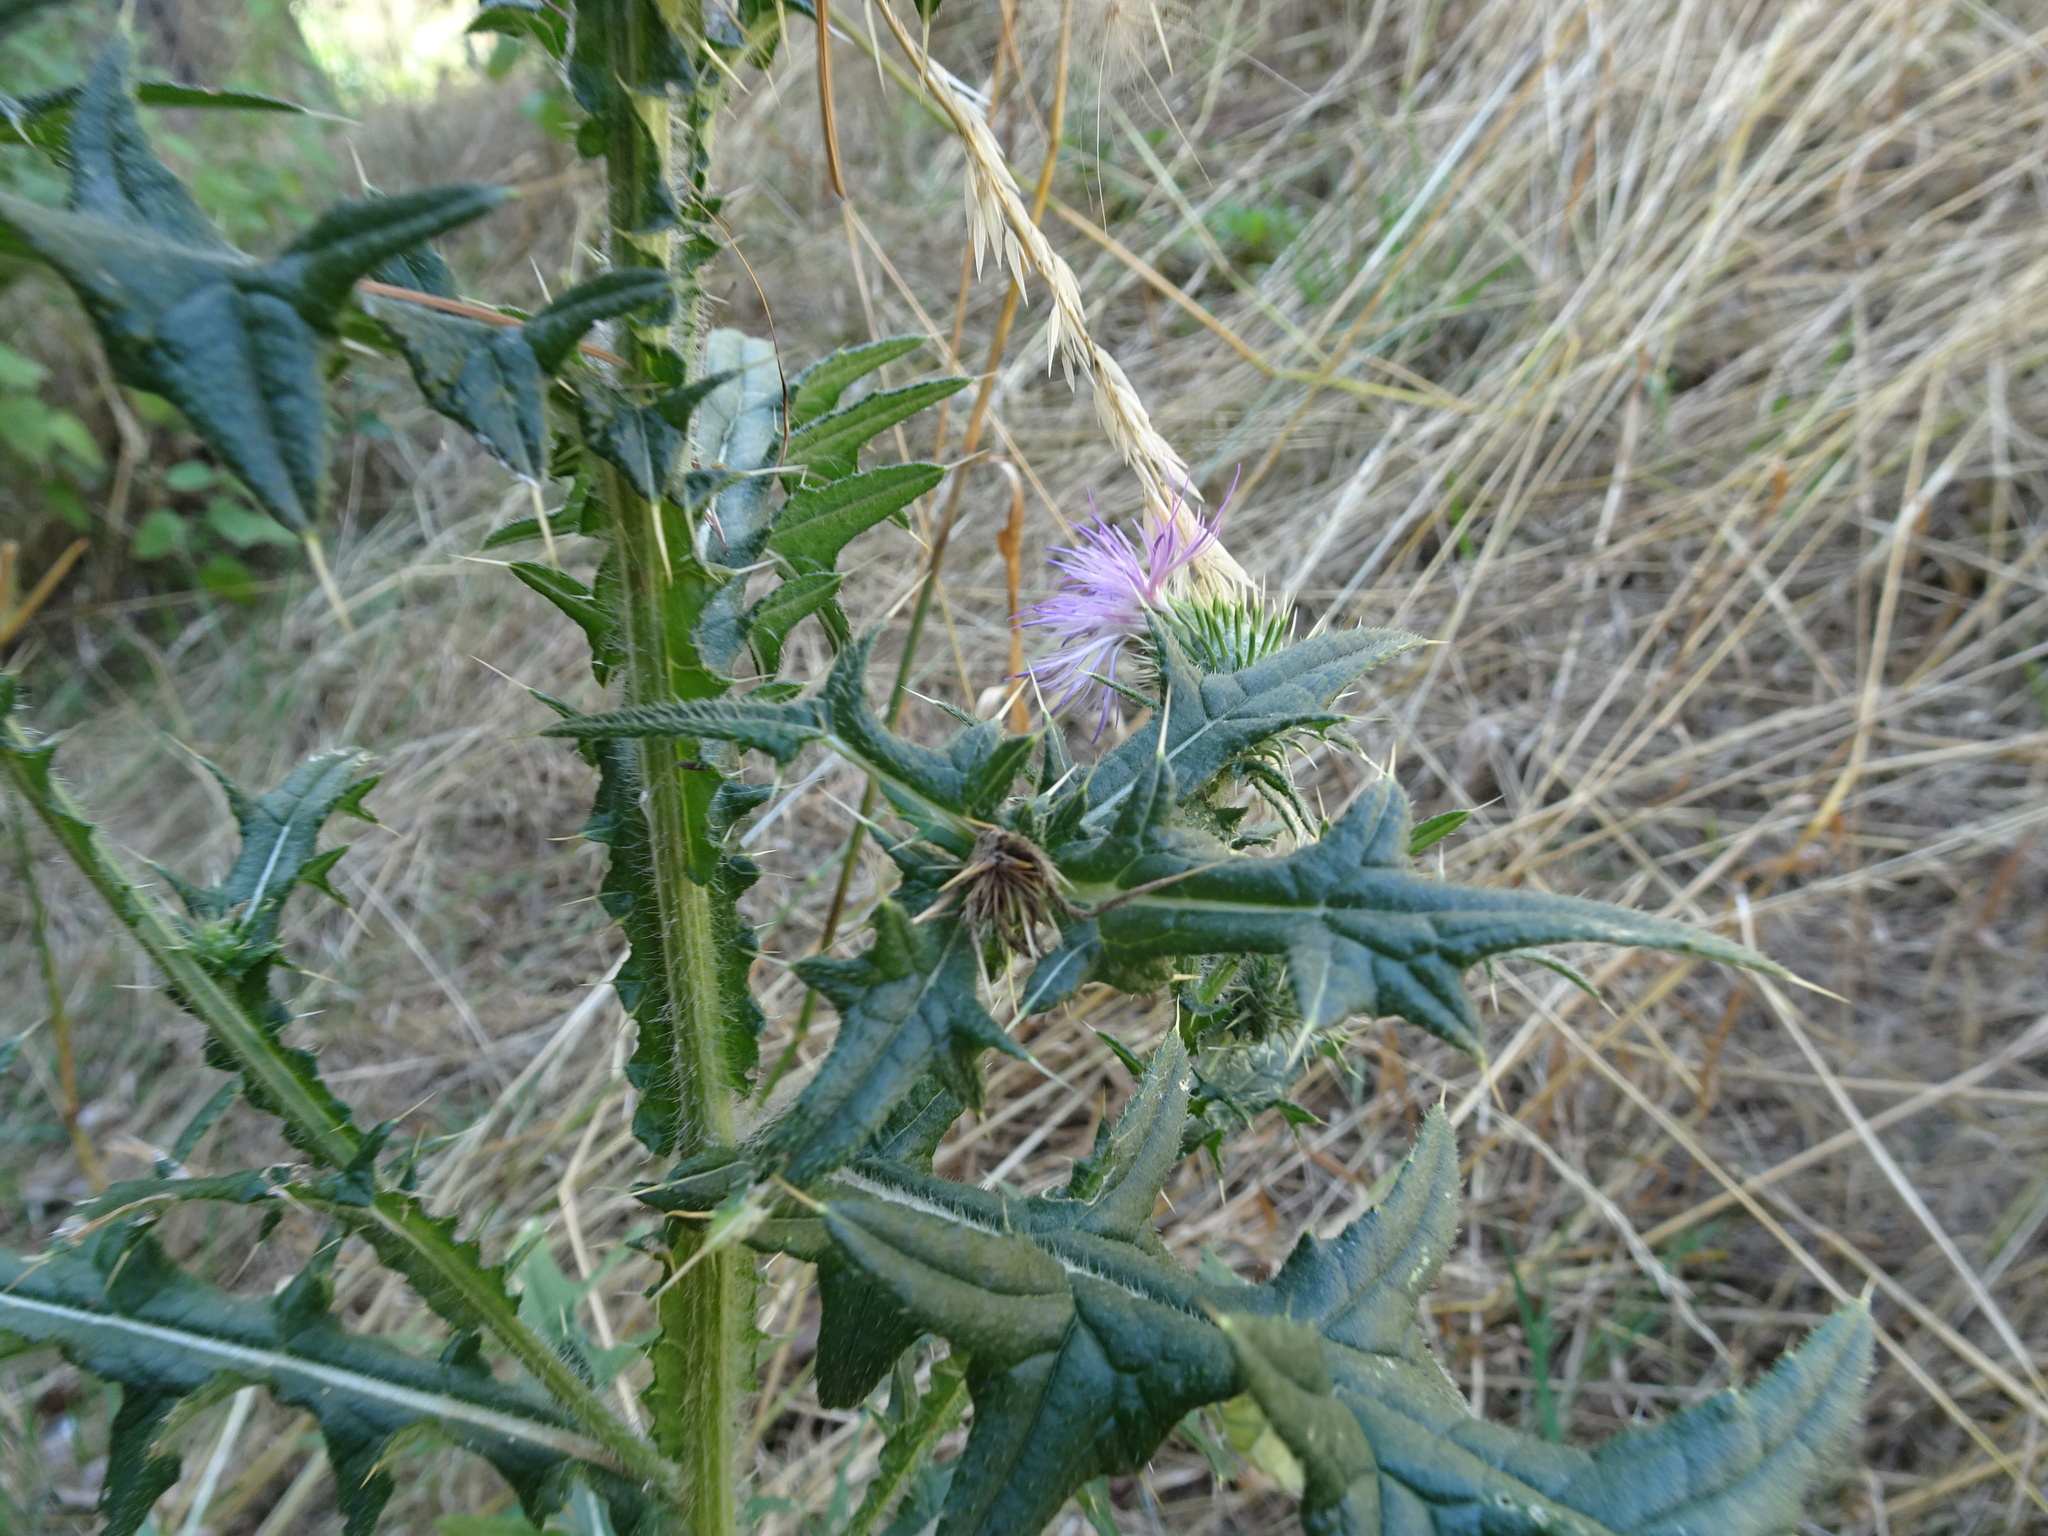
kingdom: Plantae
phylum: Tracheophyta
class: Magnoliopsida
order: Asterales
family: Asteraceae
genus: Cirsium
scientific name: Cirsium vulgare
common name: Bull thistle
